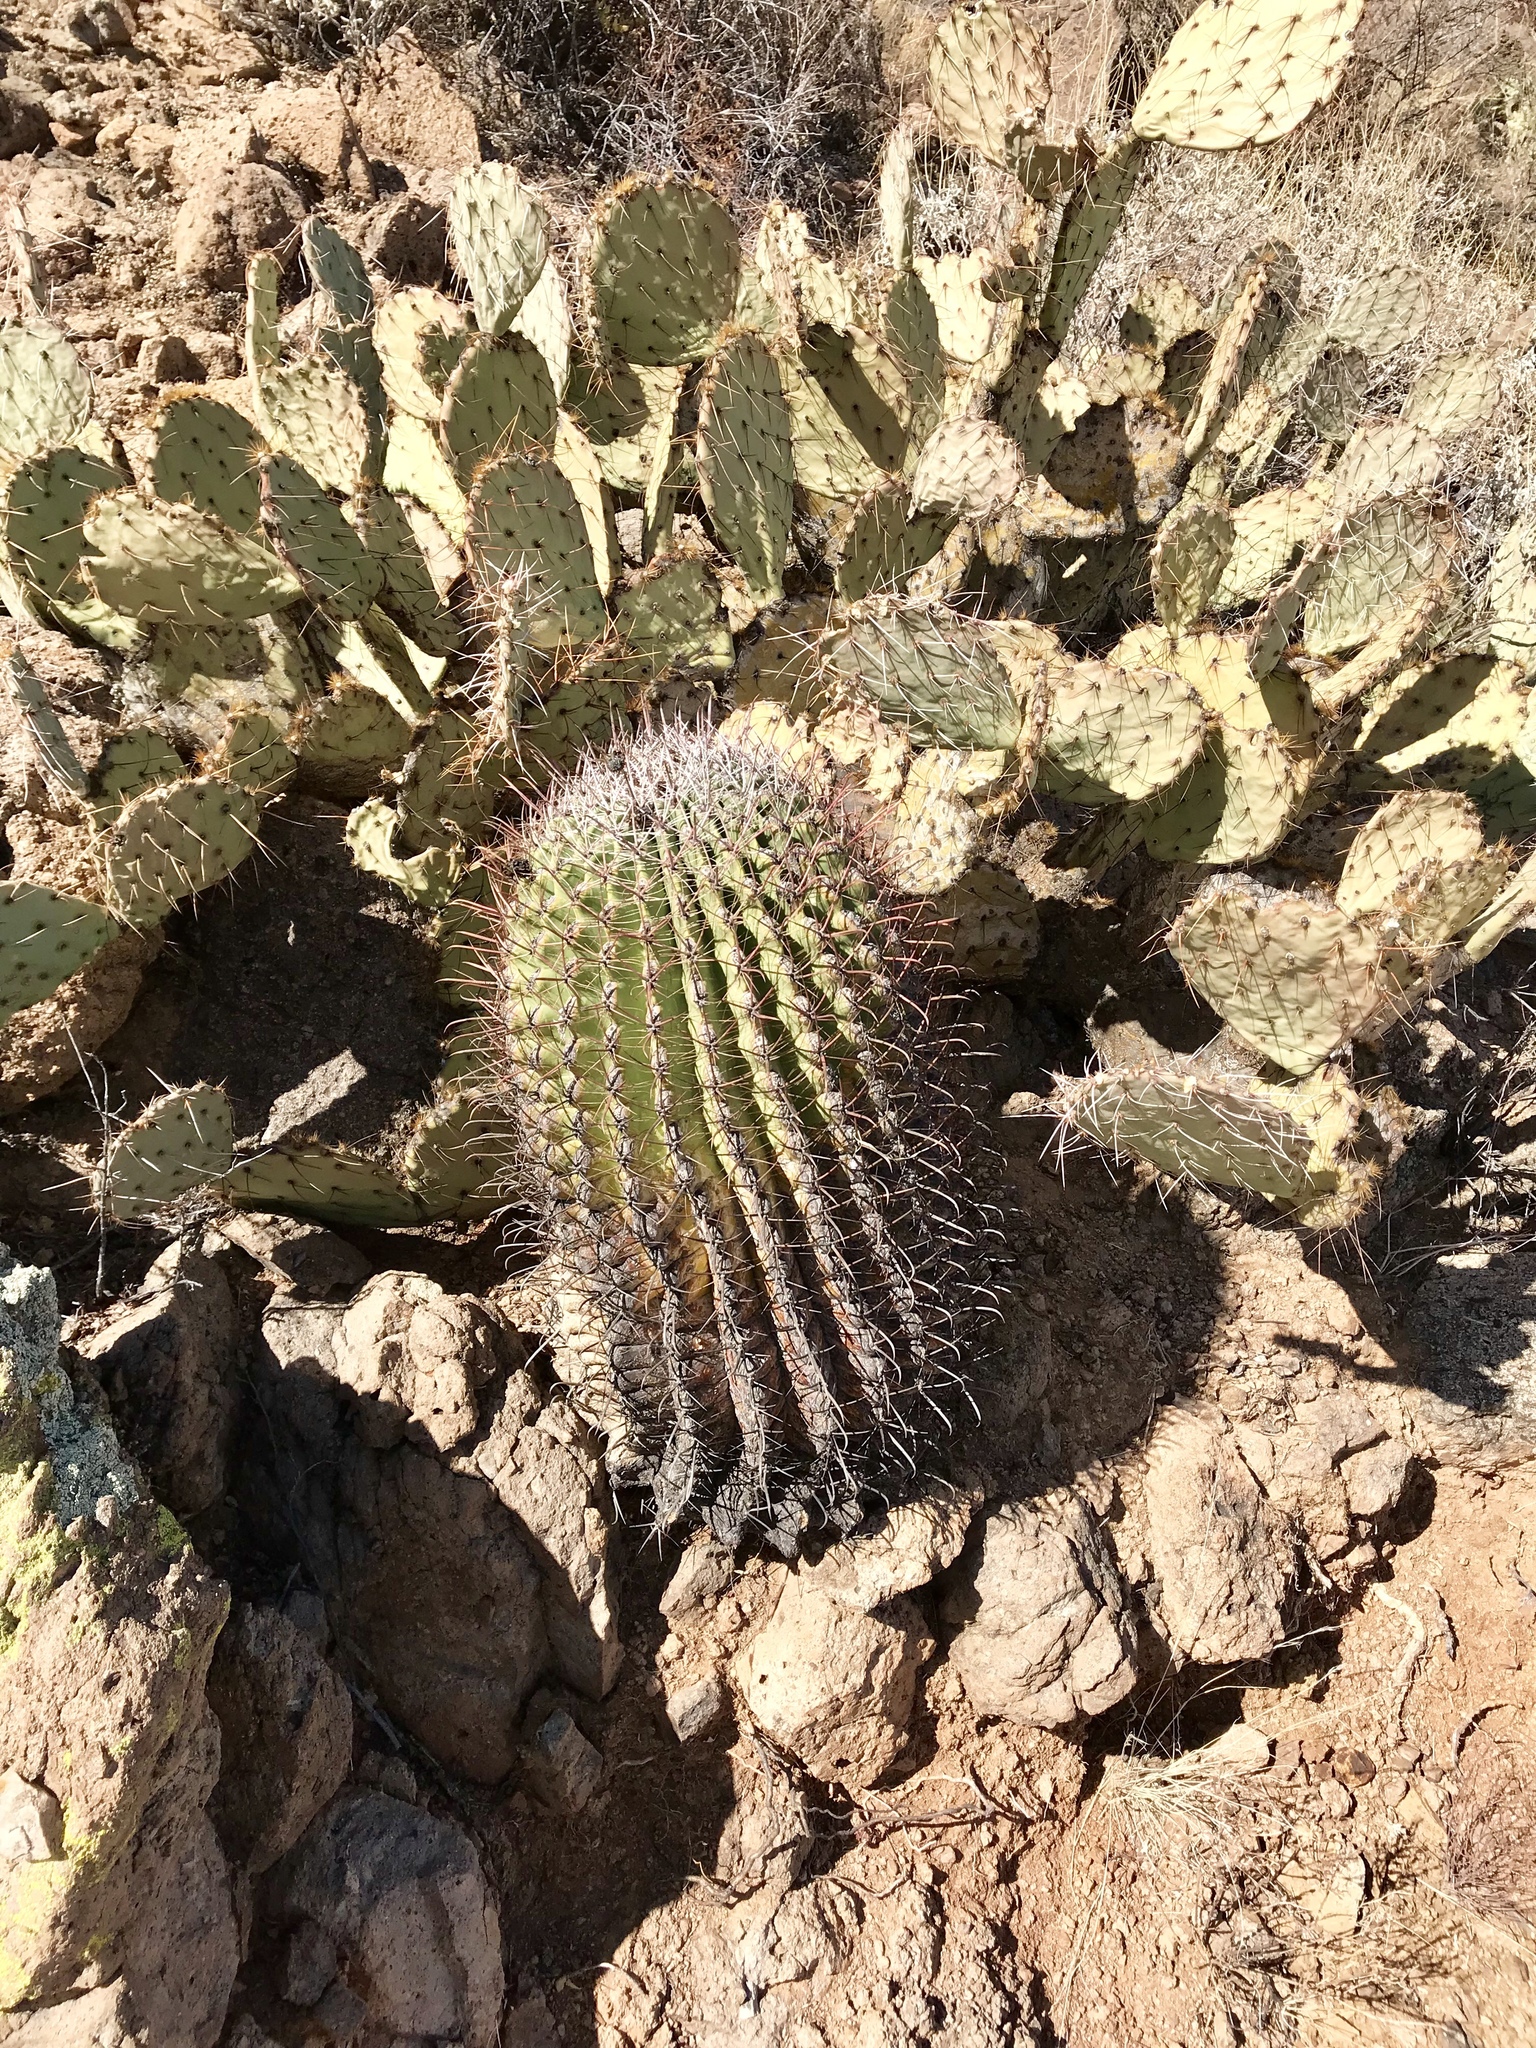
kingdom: Plantae
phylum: Tracheophyta
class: Magnoliopsida
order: Caryophyllales
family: Cactaceae
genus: Ferocactus
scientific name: Ferocactus wislizeni
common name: Candy barrel cactus
